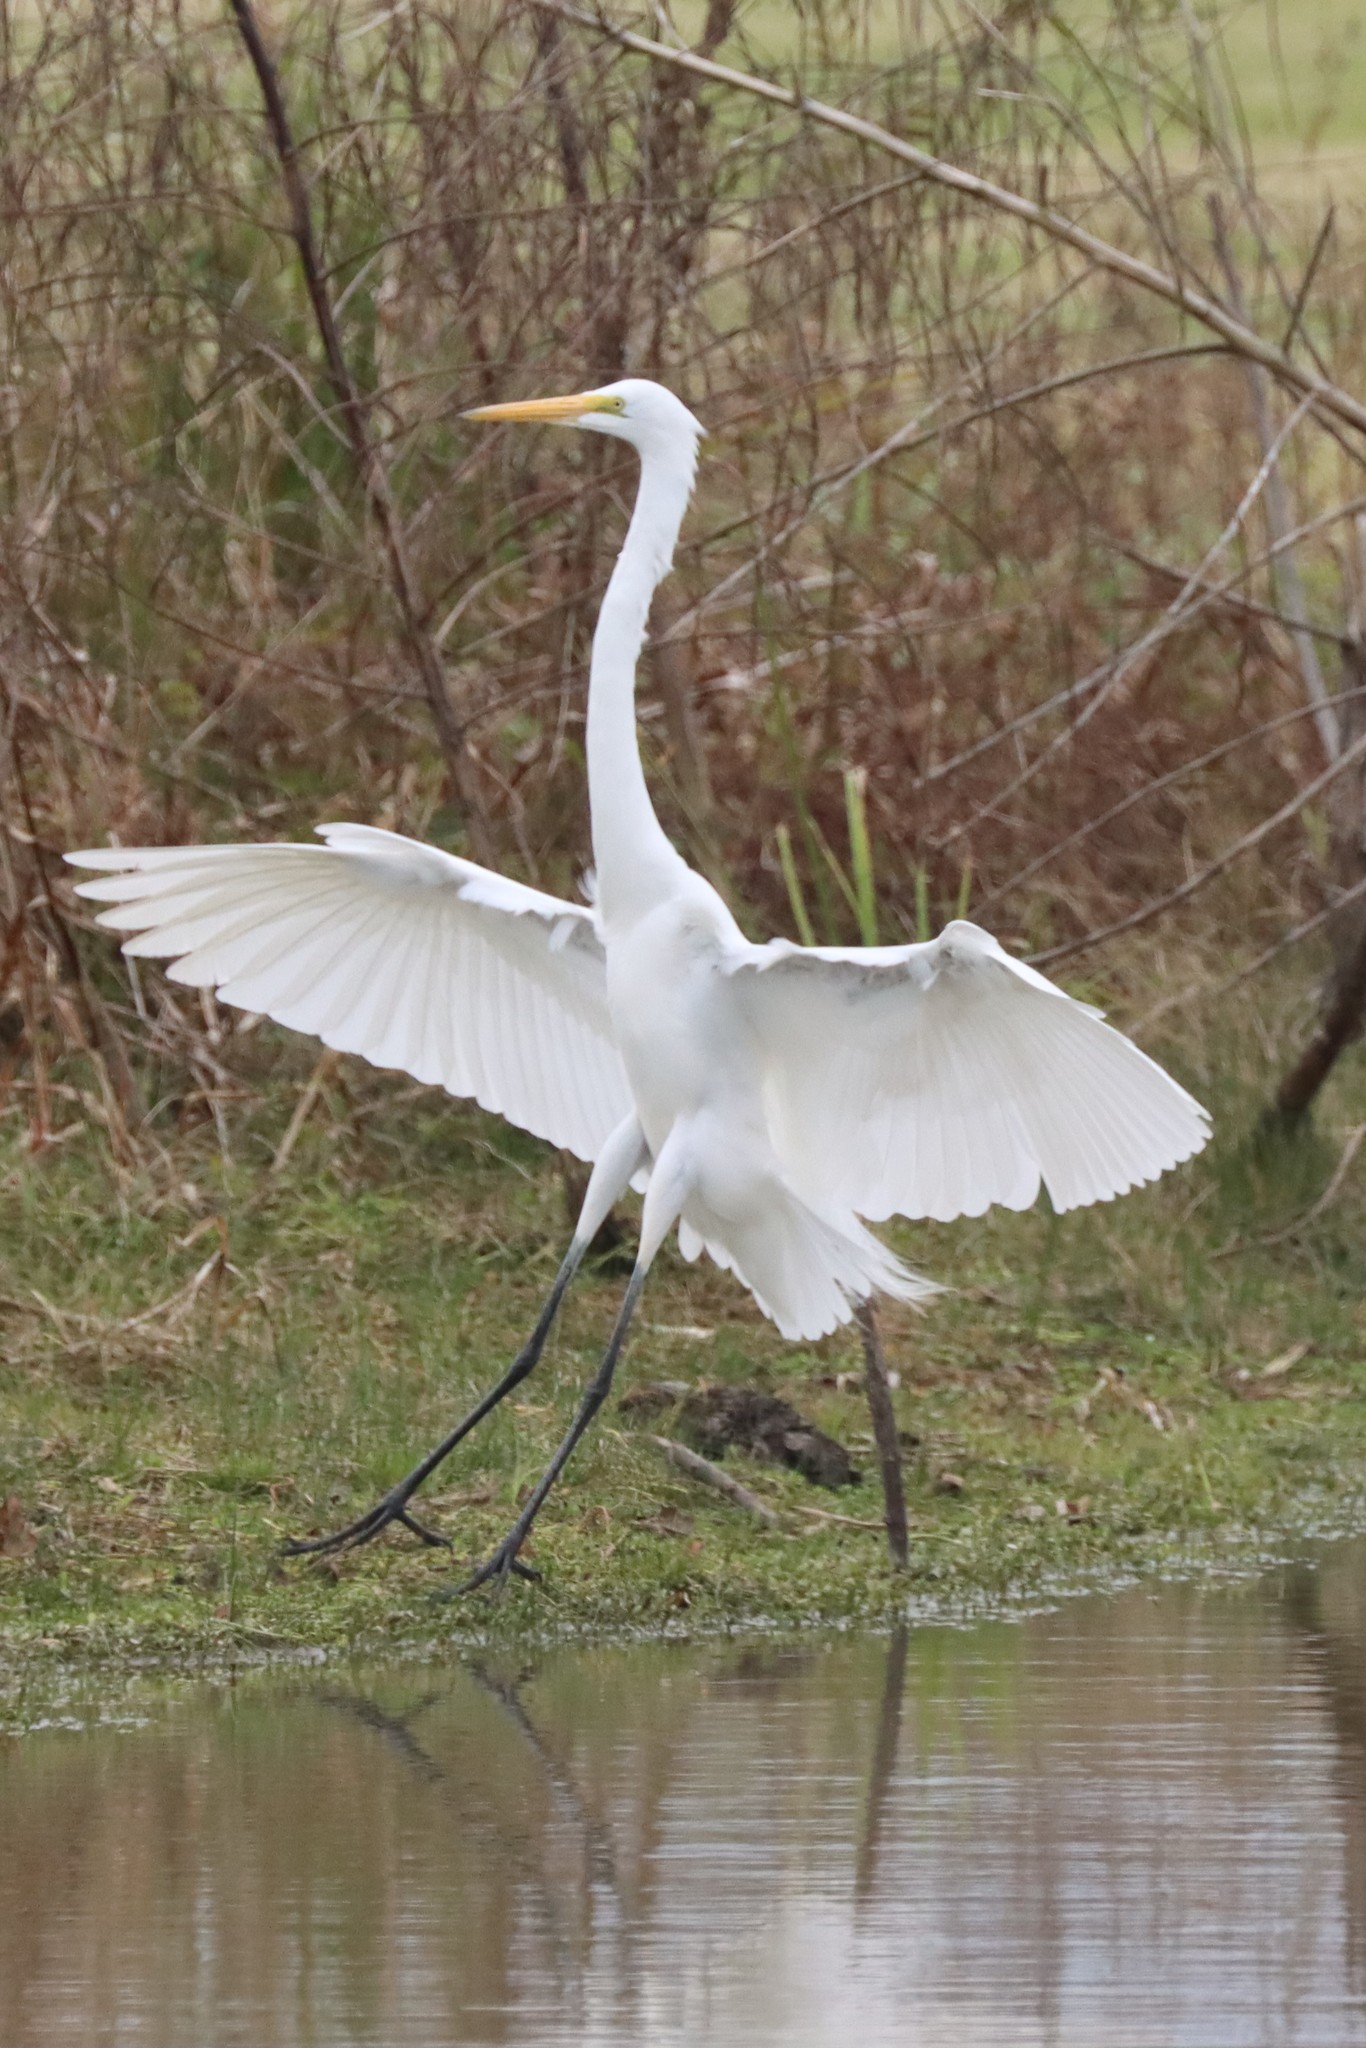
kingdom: Animalia
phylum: Chordata
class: Aves
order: Pelecaniformes
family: Ardeidae
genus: Ardea
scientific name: Ardea alba
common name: Great egret
